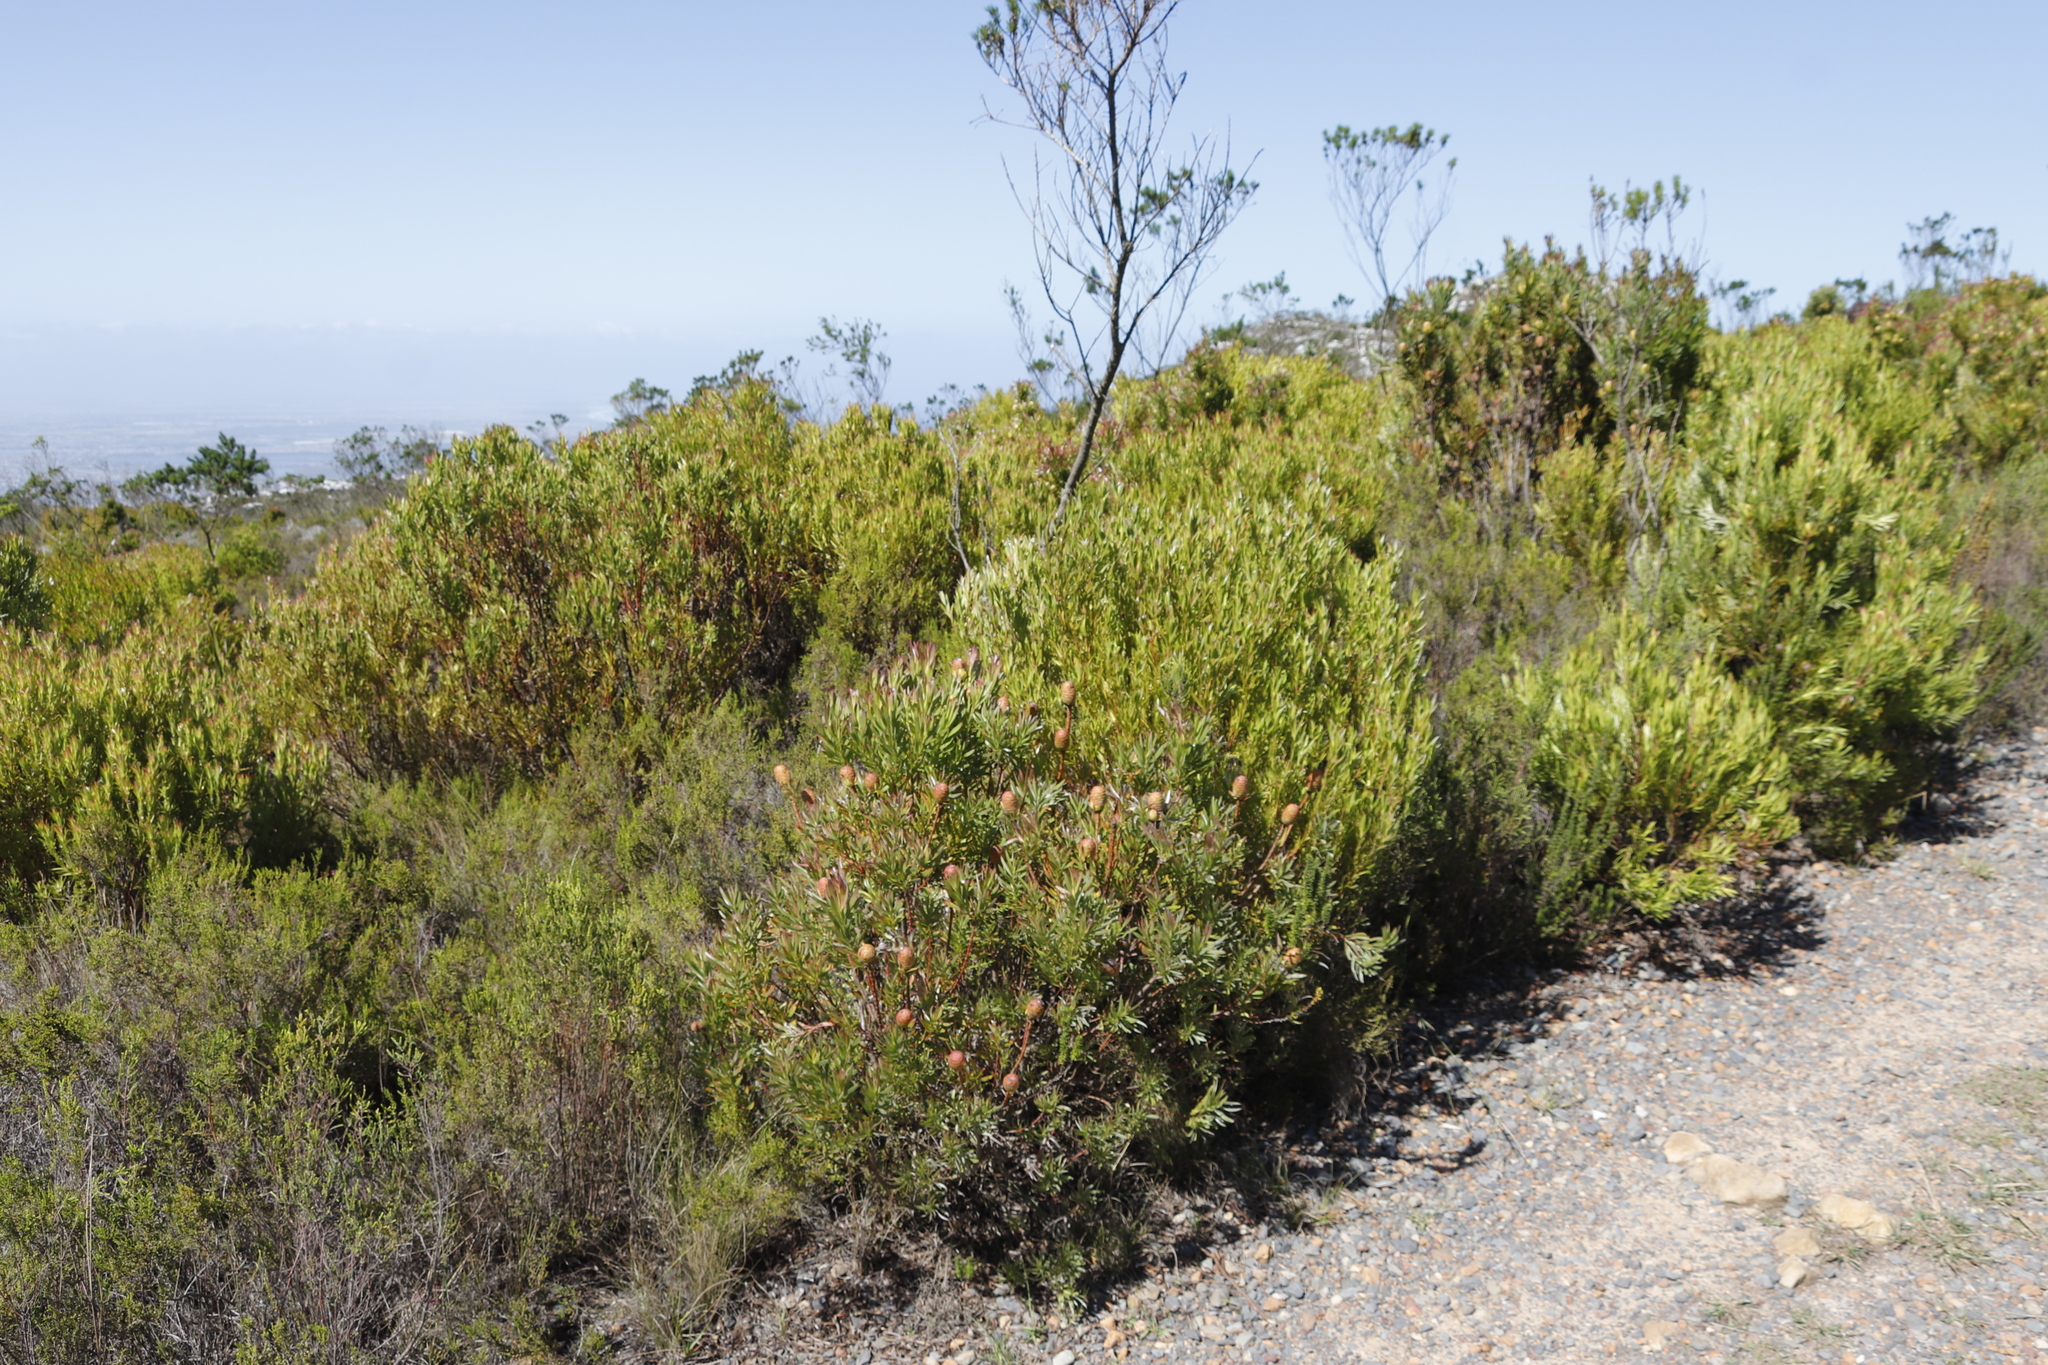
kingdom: Plantae
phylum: Tracheophyta
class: Magnoliopsida
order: Proteales
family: Proteaceae
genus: Leucadendron
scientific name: Leucadendron xanthoconus
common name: Sickle-leaf conebush
